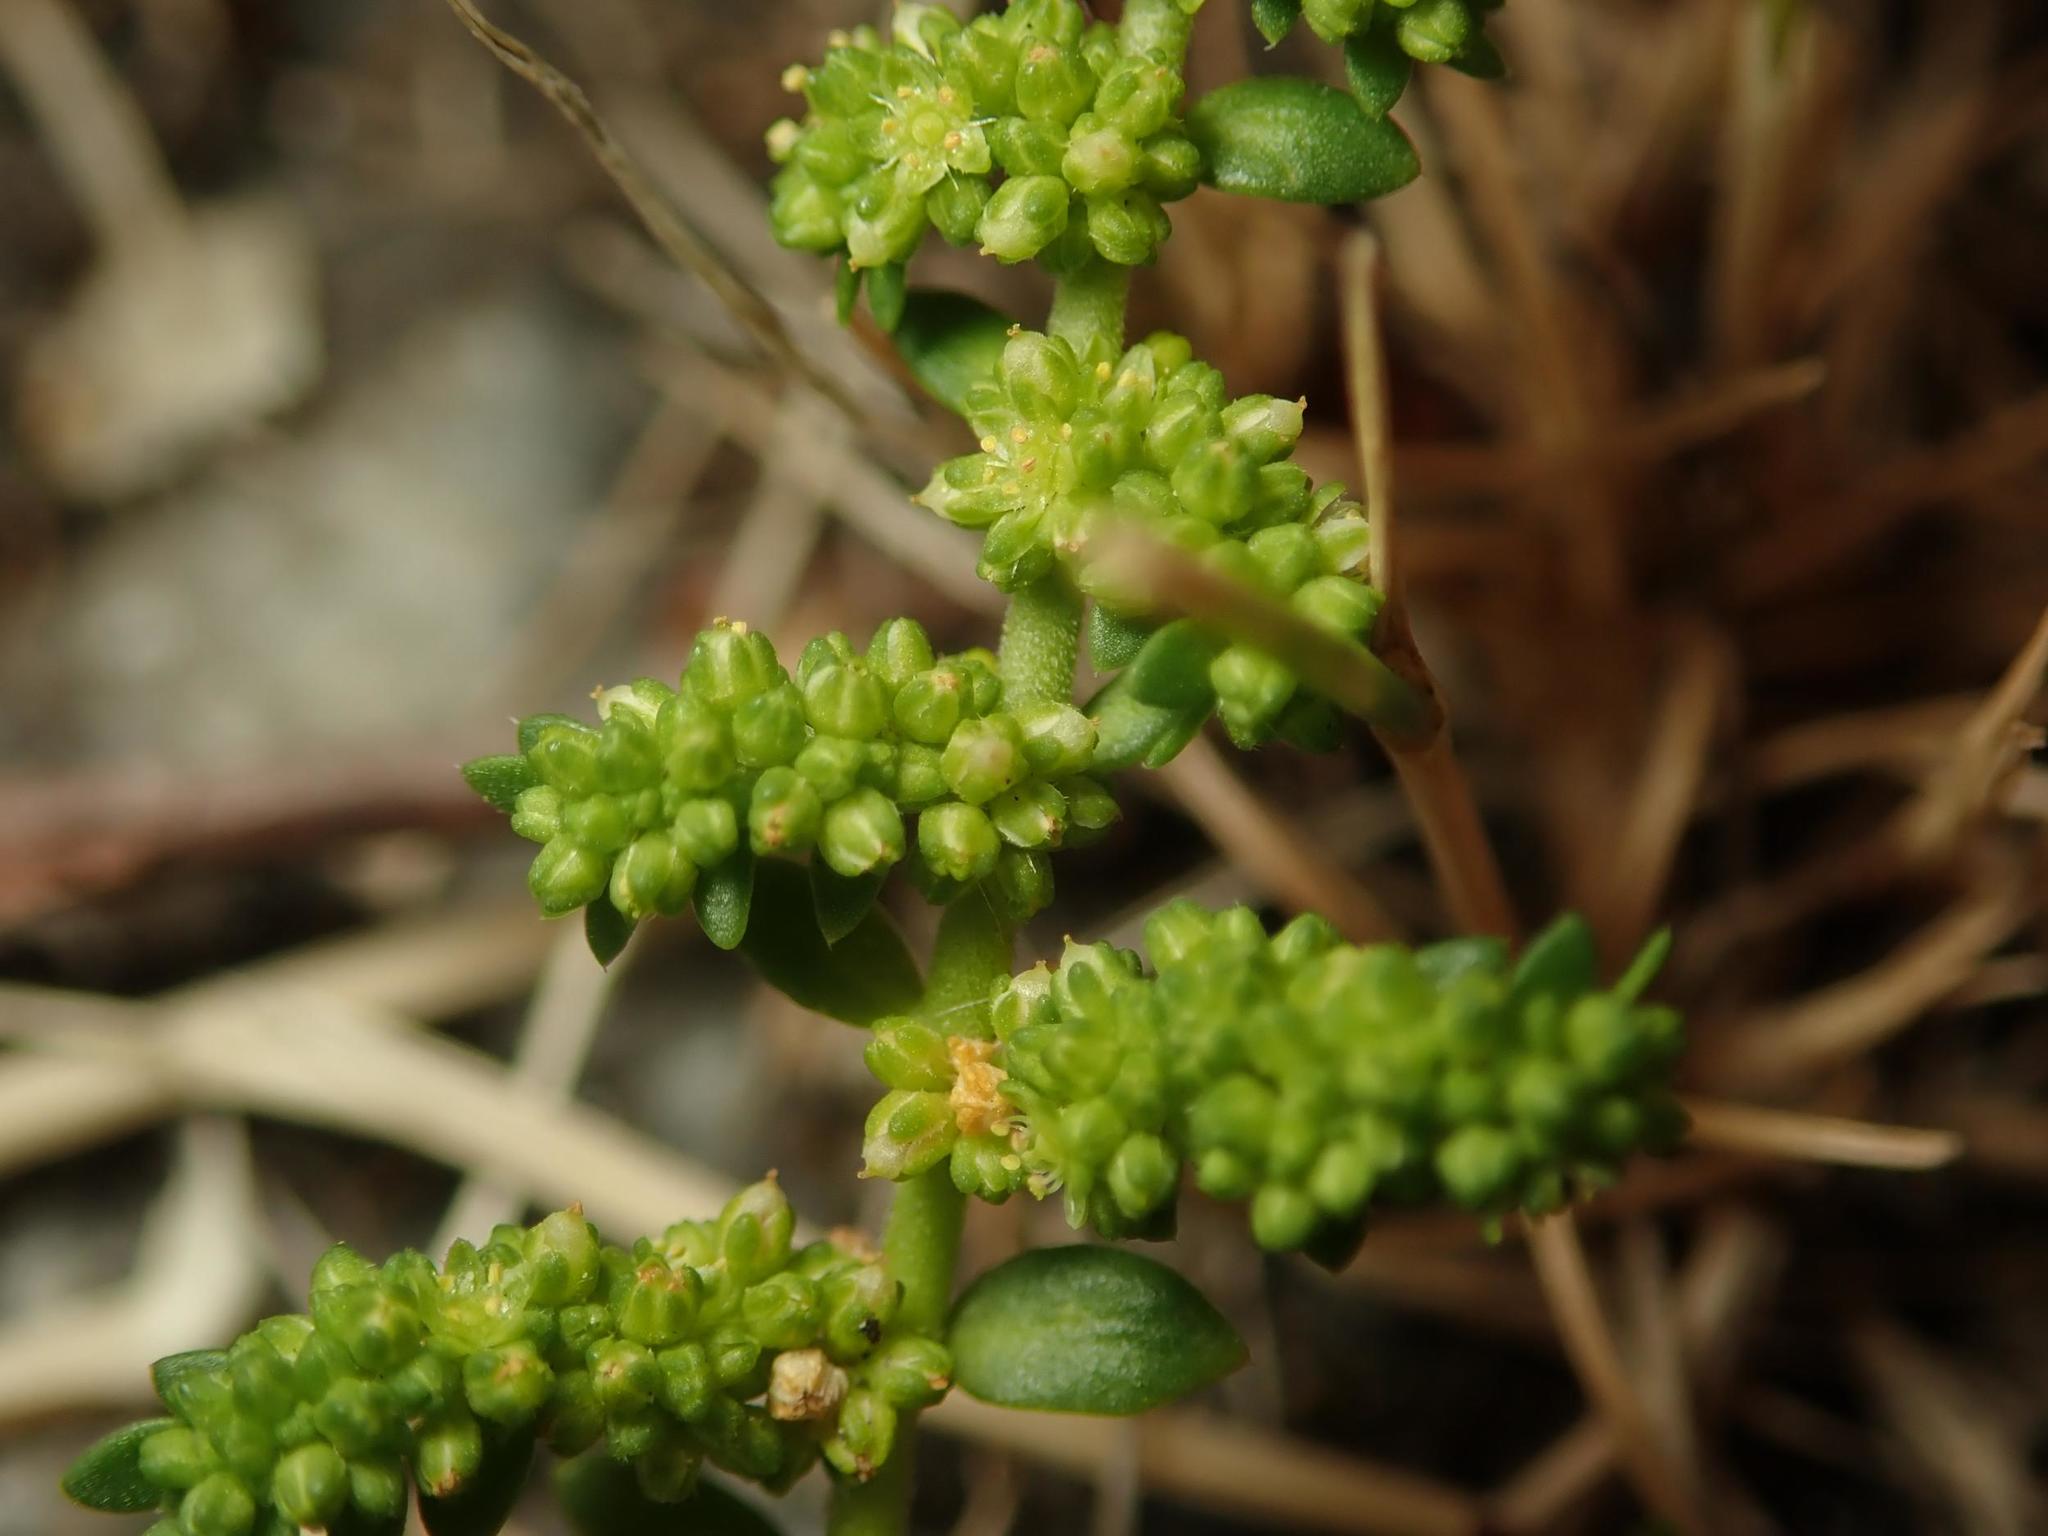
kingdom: Plantae
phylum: Tracheophyta
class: Magnoliopsida
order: Caryophyllales
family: Caryophyllaceae
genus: Herniaria
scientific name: Herniaria glabra
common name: Smooth rupturewort
